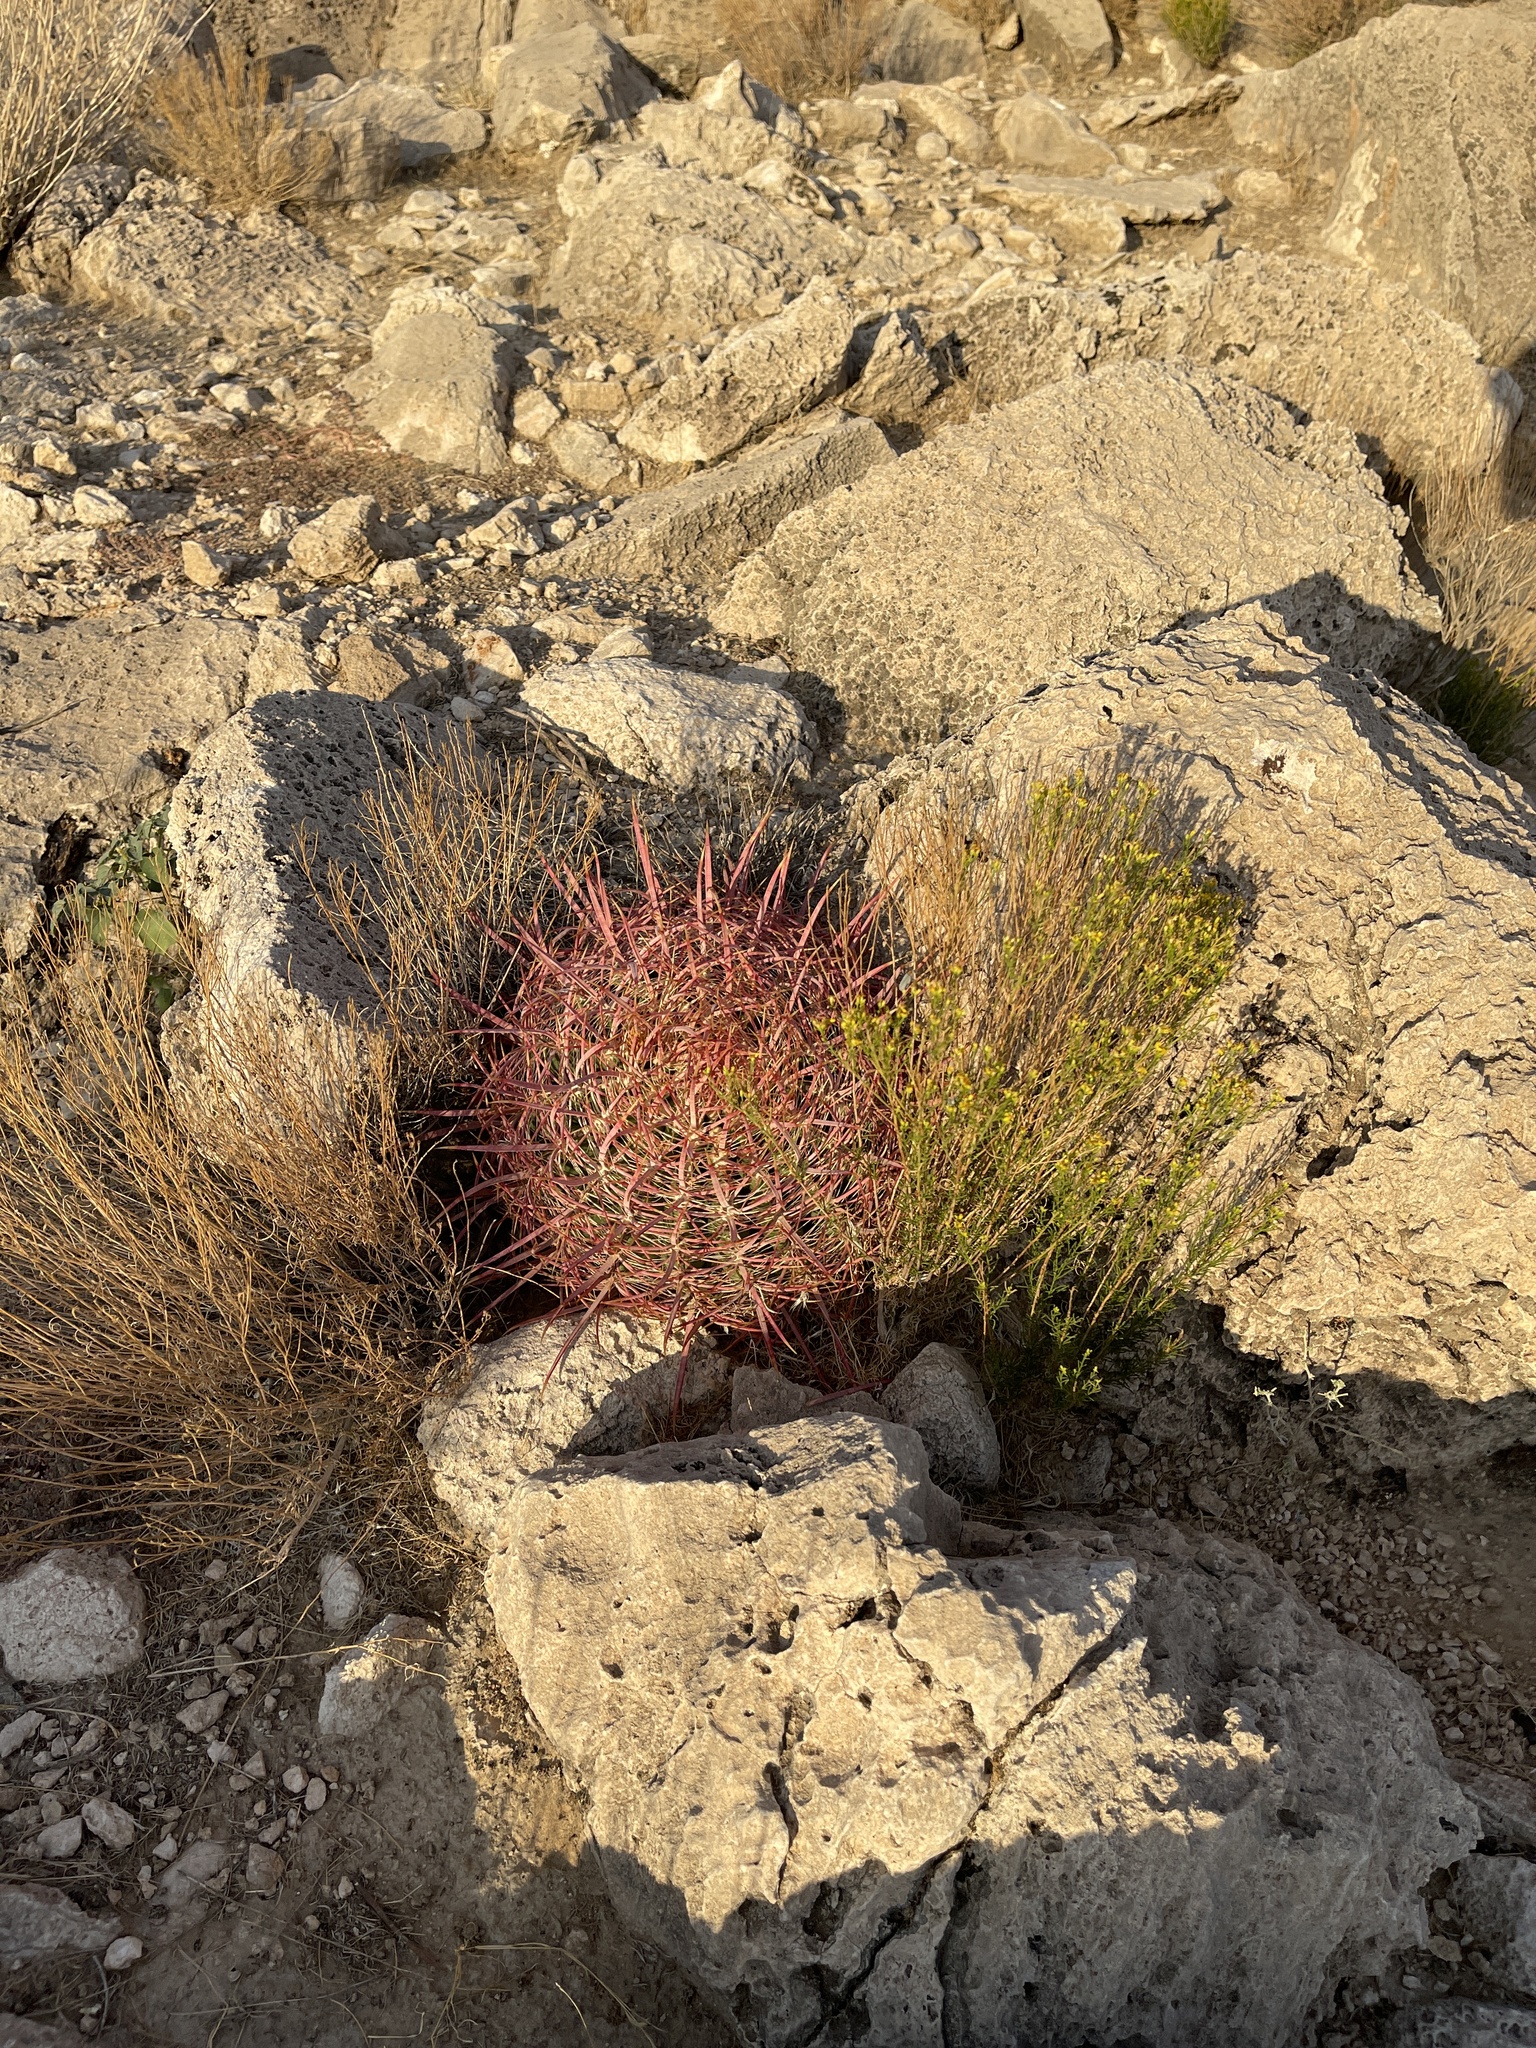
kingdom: Plantae
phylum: Tracheophyta
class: Magnoliopsida
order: Caryophyllales
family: Cactaceae
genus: Ferocactus
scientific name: Ferocactus cylindraceus
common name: California barrel cactus
